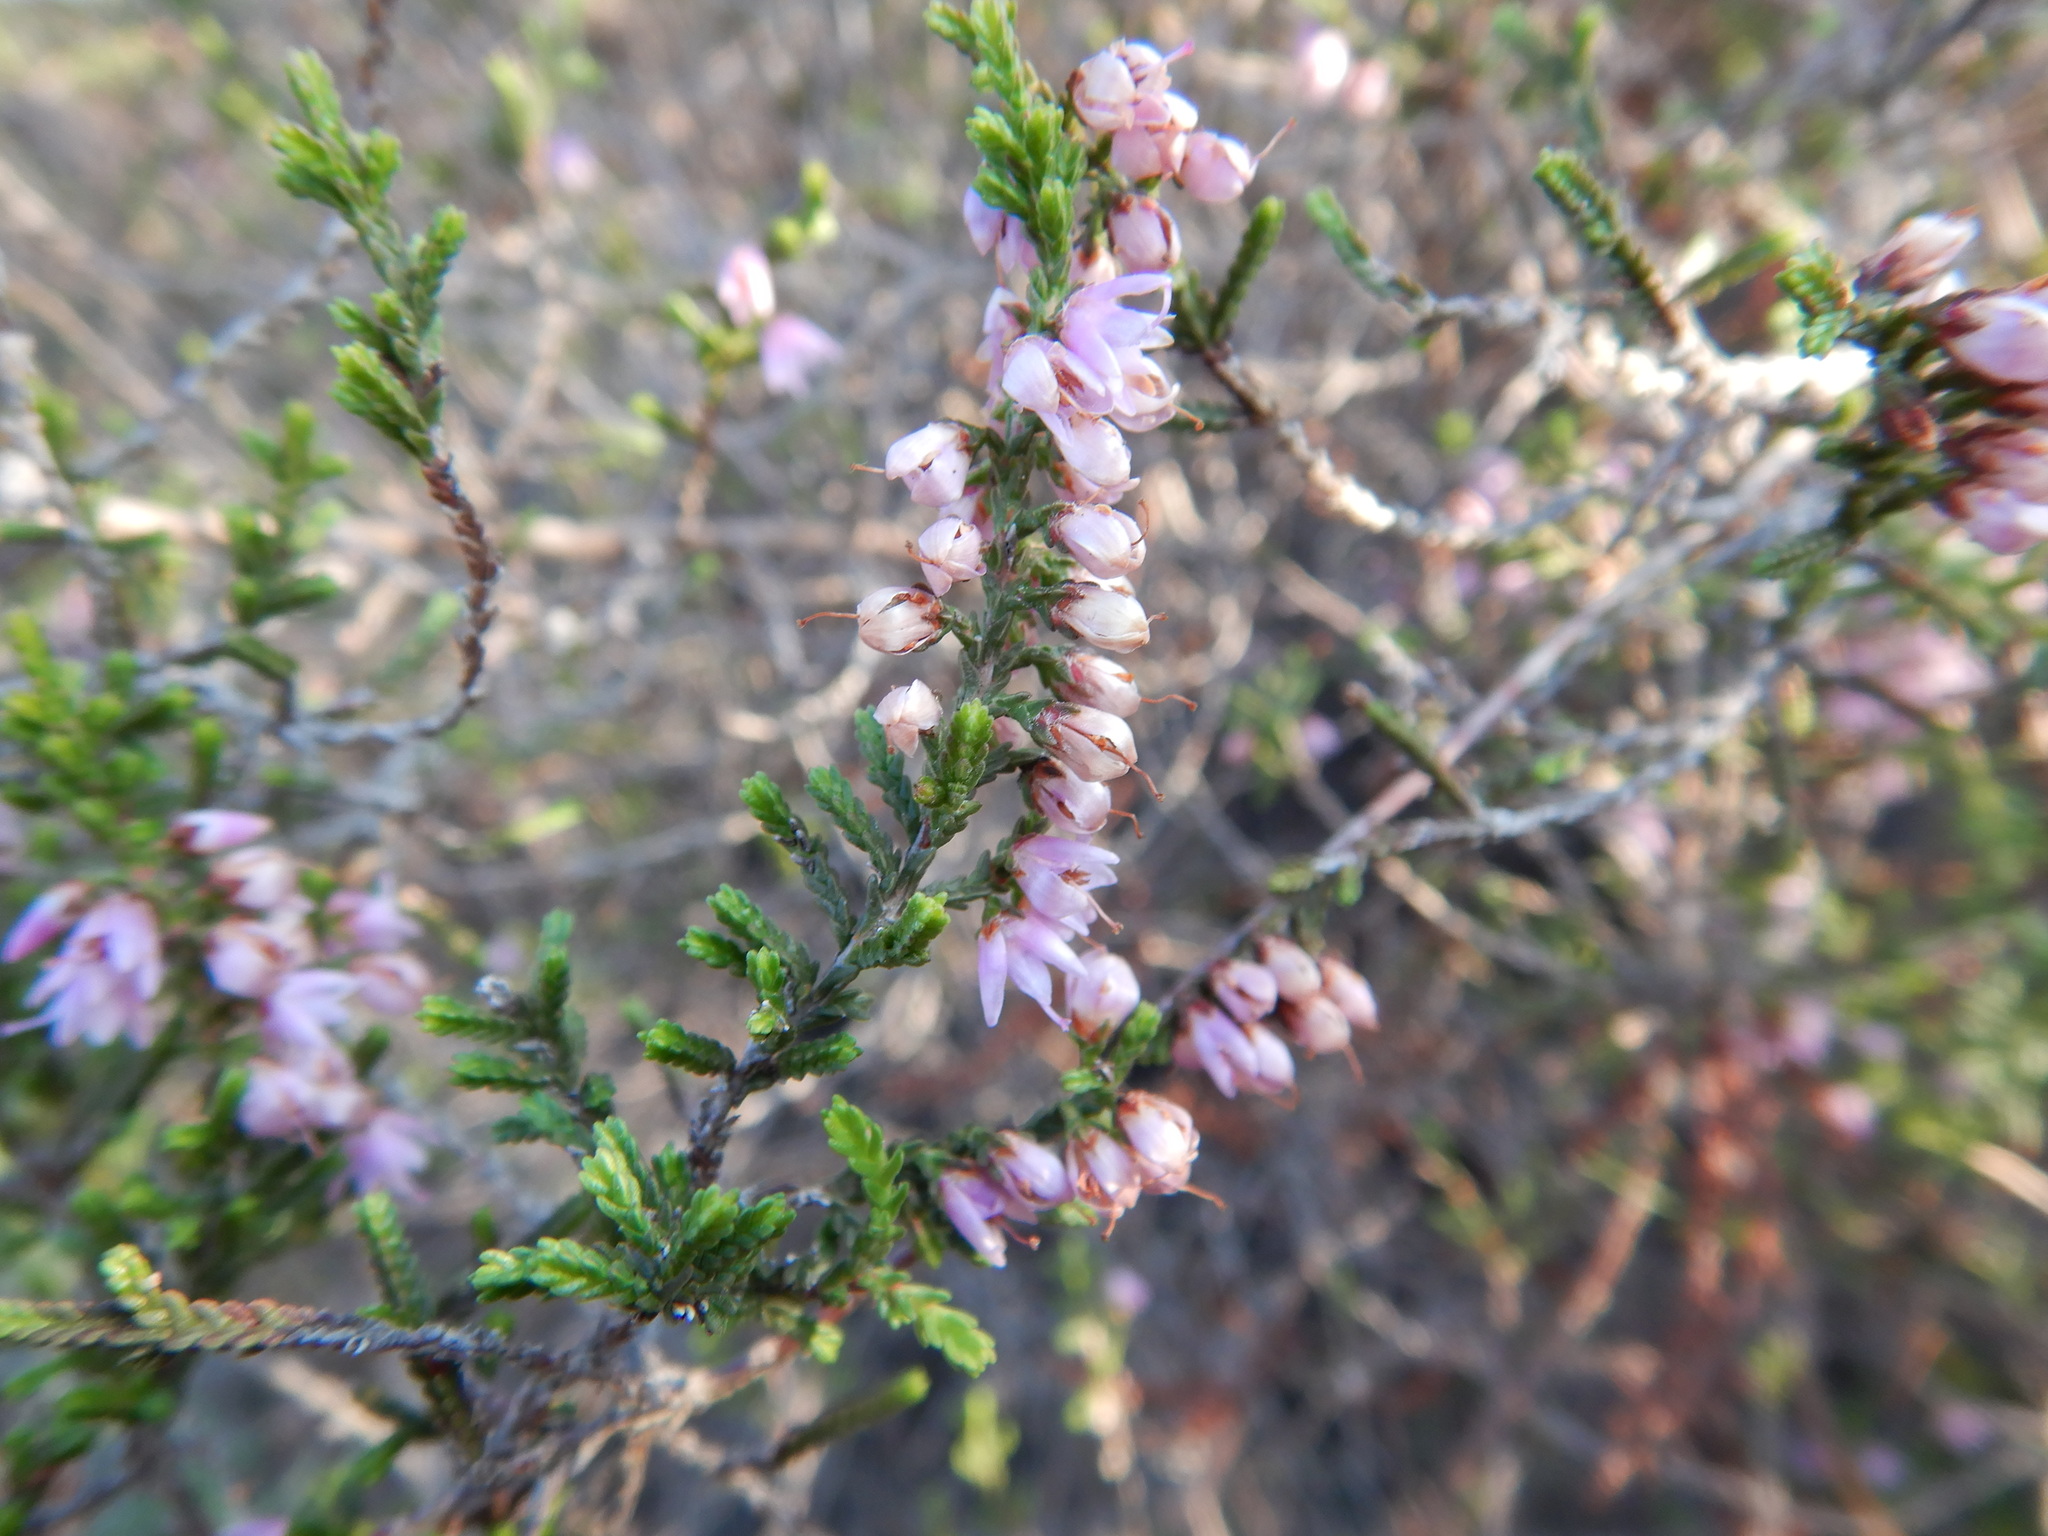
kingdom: Plantae
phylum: Tracheophyta
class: Magnoliopsida
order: Ericales
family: Ericaceae
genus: Calluna
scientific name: Calluna vulgaris
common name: Heather
